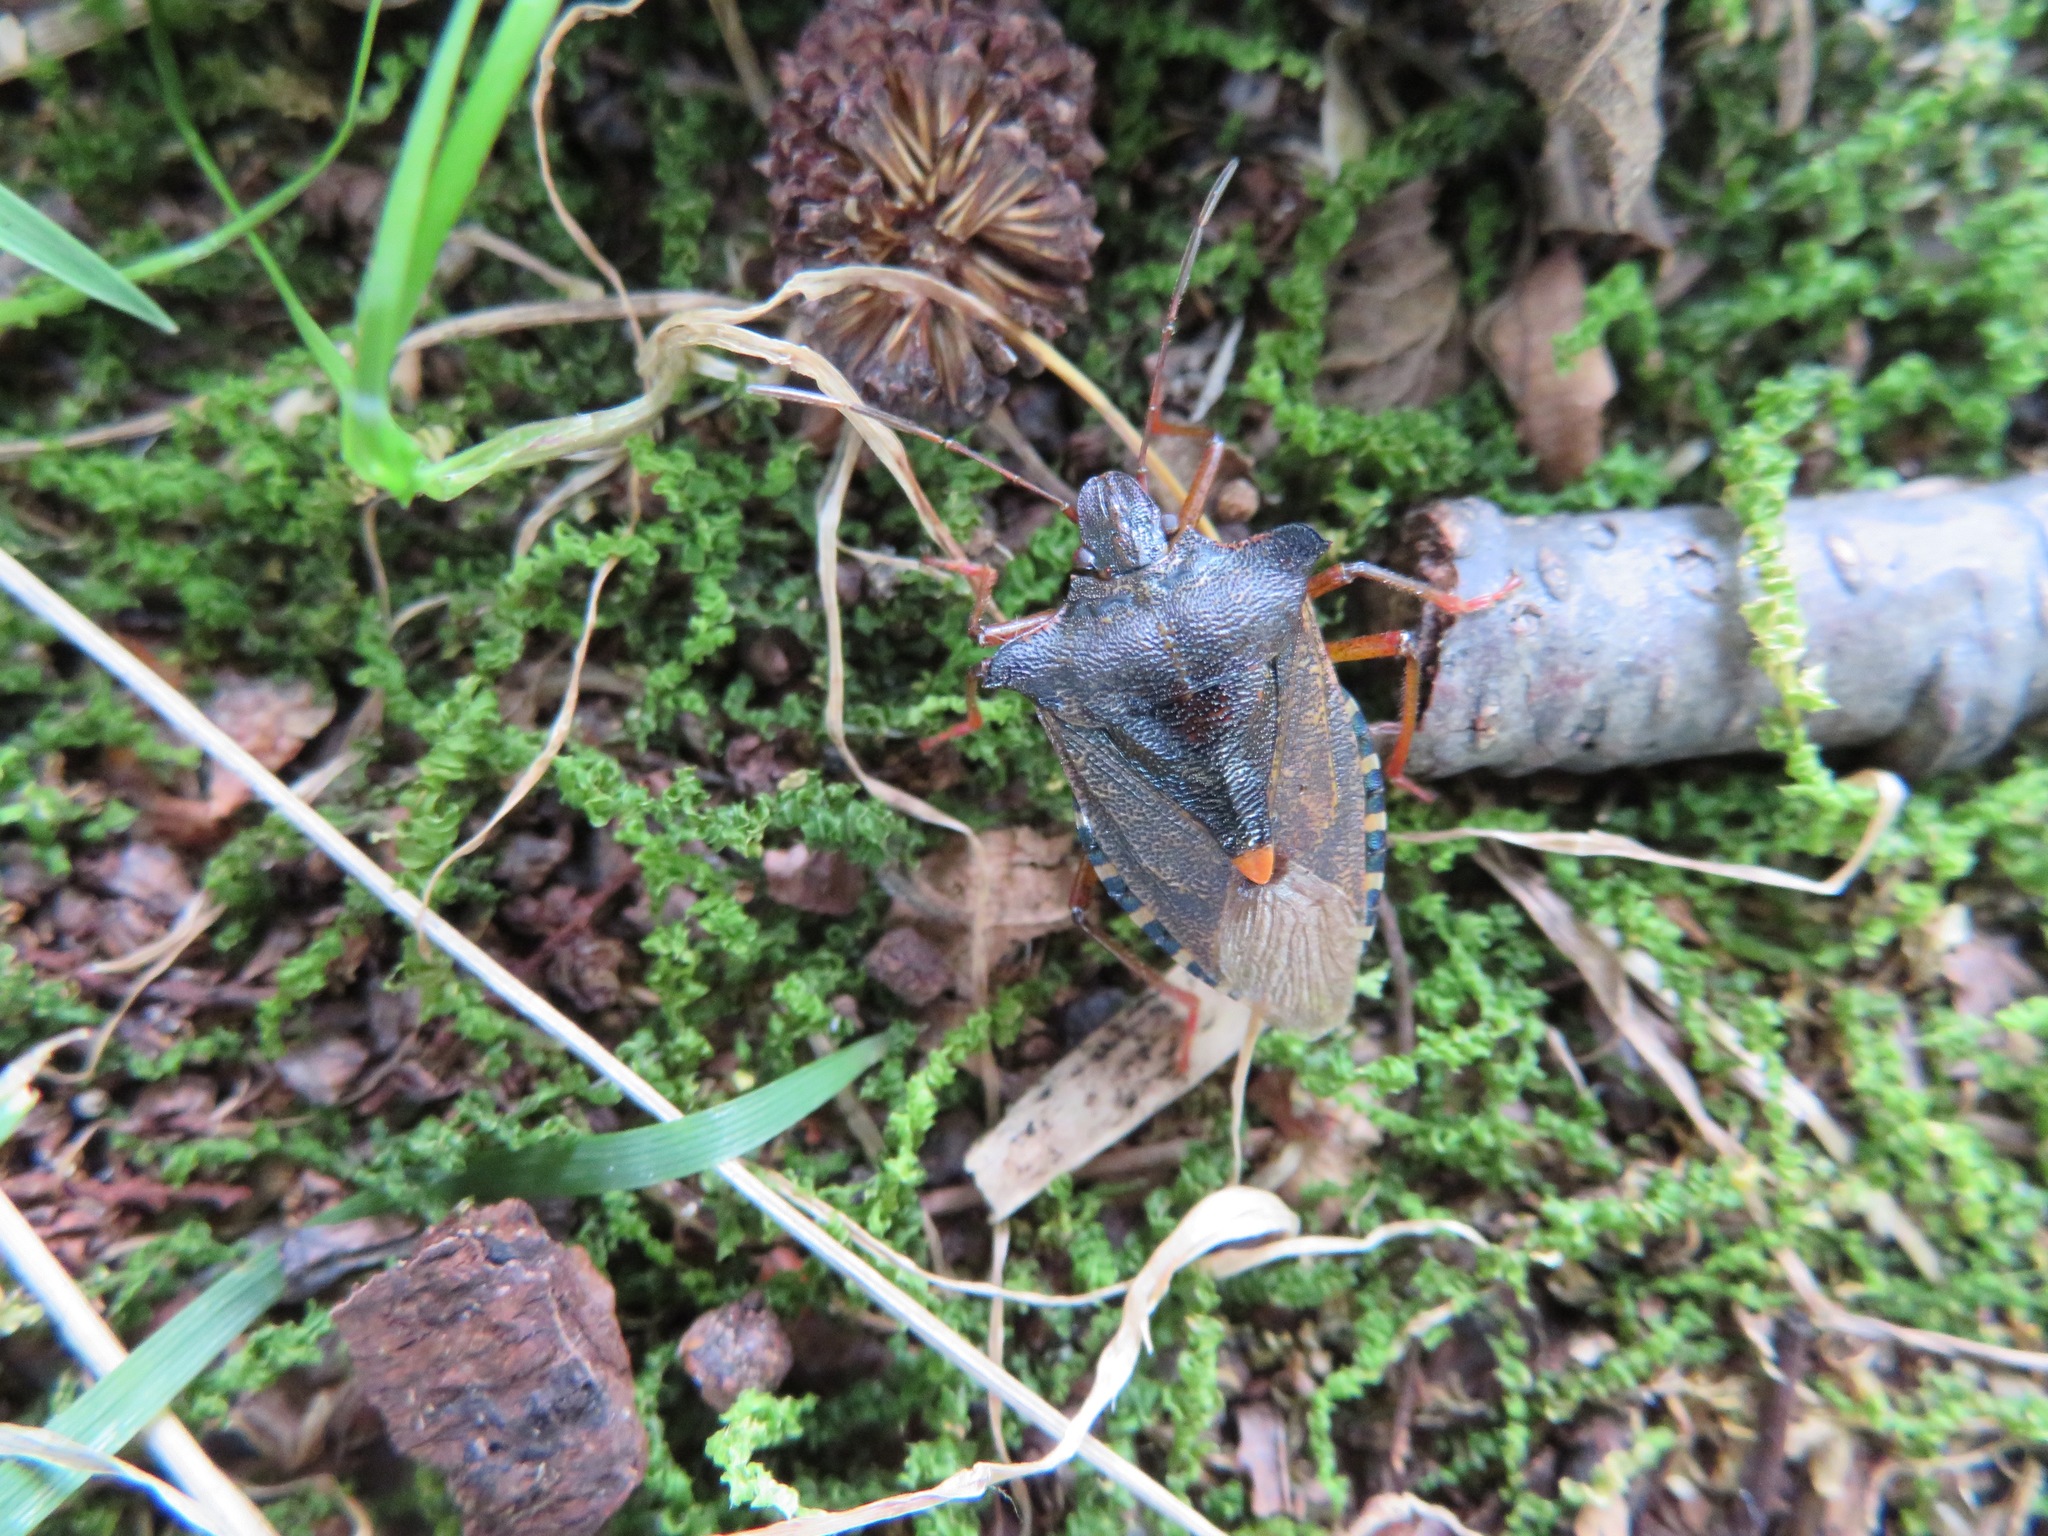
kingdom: Animalia
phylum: Arthropoda
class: Insecta
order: Hemiptera
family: Pentatomidae
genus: Pentatoma
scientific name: Pentatoma rufipes
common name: Forest bug
